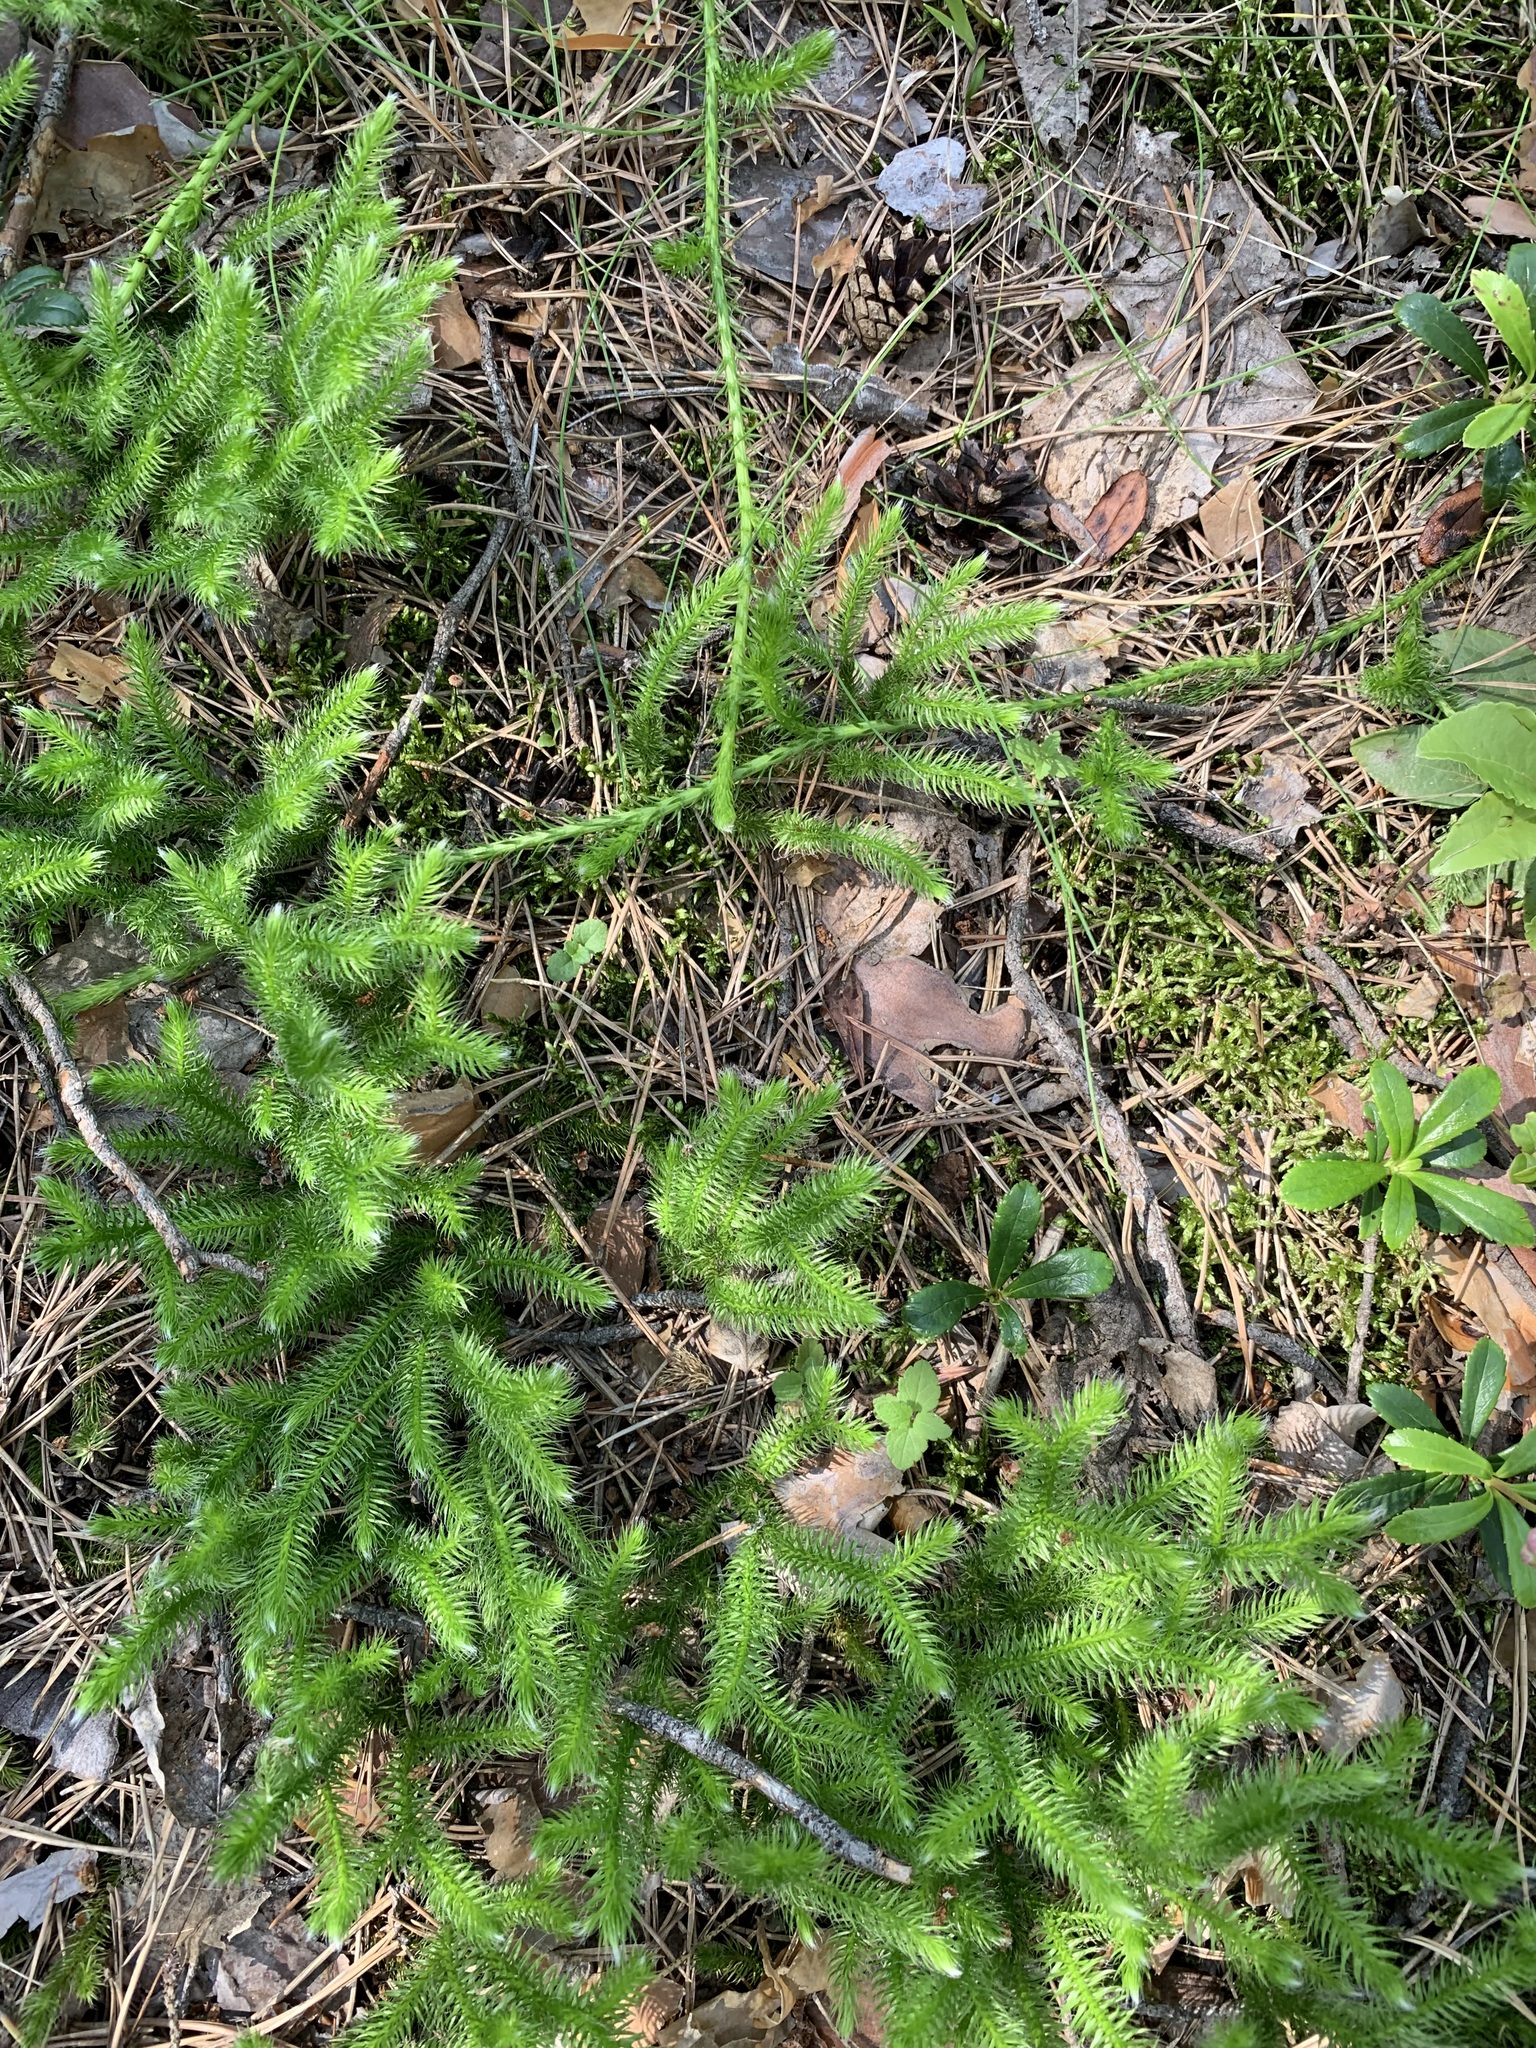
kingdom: Plantae
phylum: Tracheophyta
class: Lycopodiopsida
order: Lycopodiales
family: Lycopodiaceae
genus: Lycopodium
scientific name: Lycopodium clavatum
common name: Stag's-horn clubmoss
